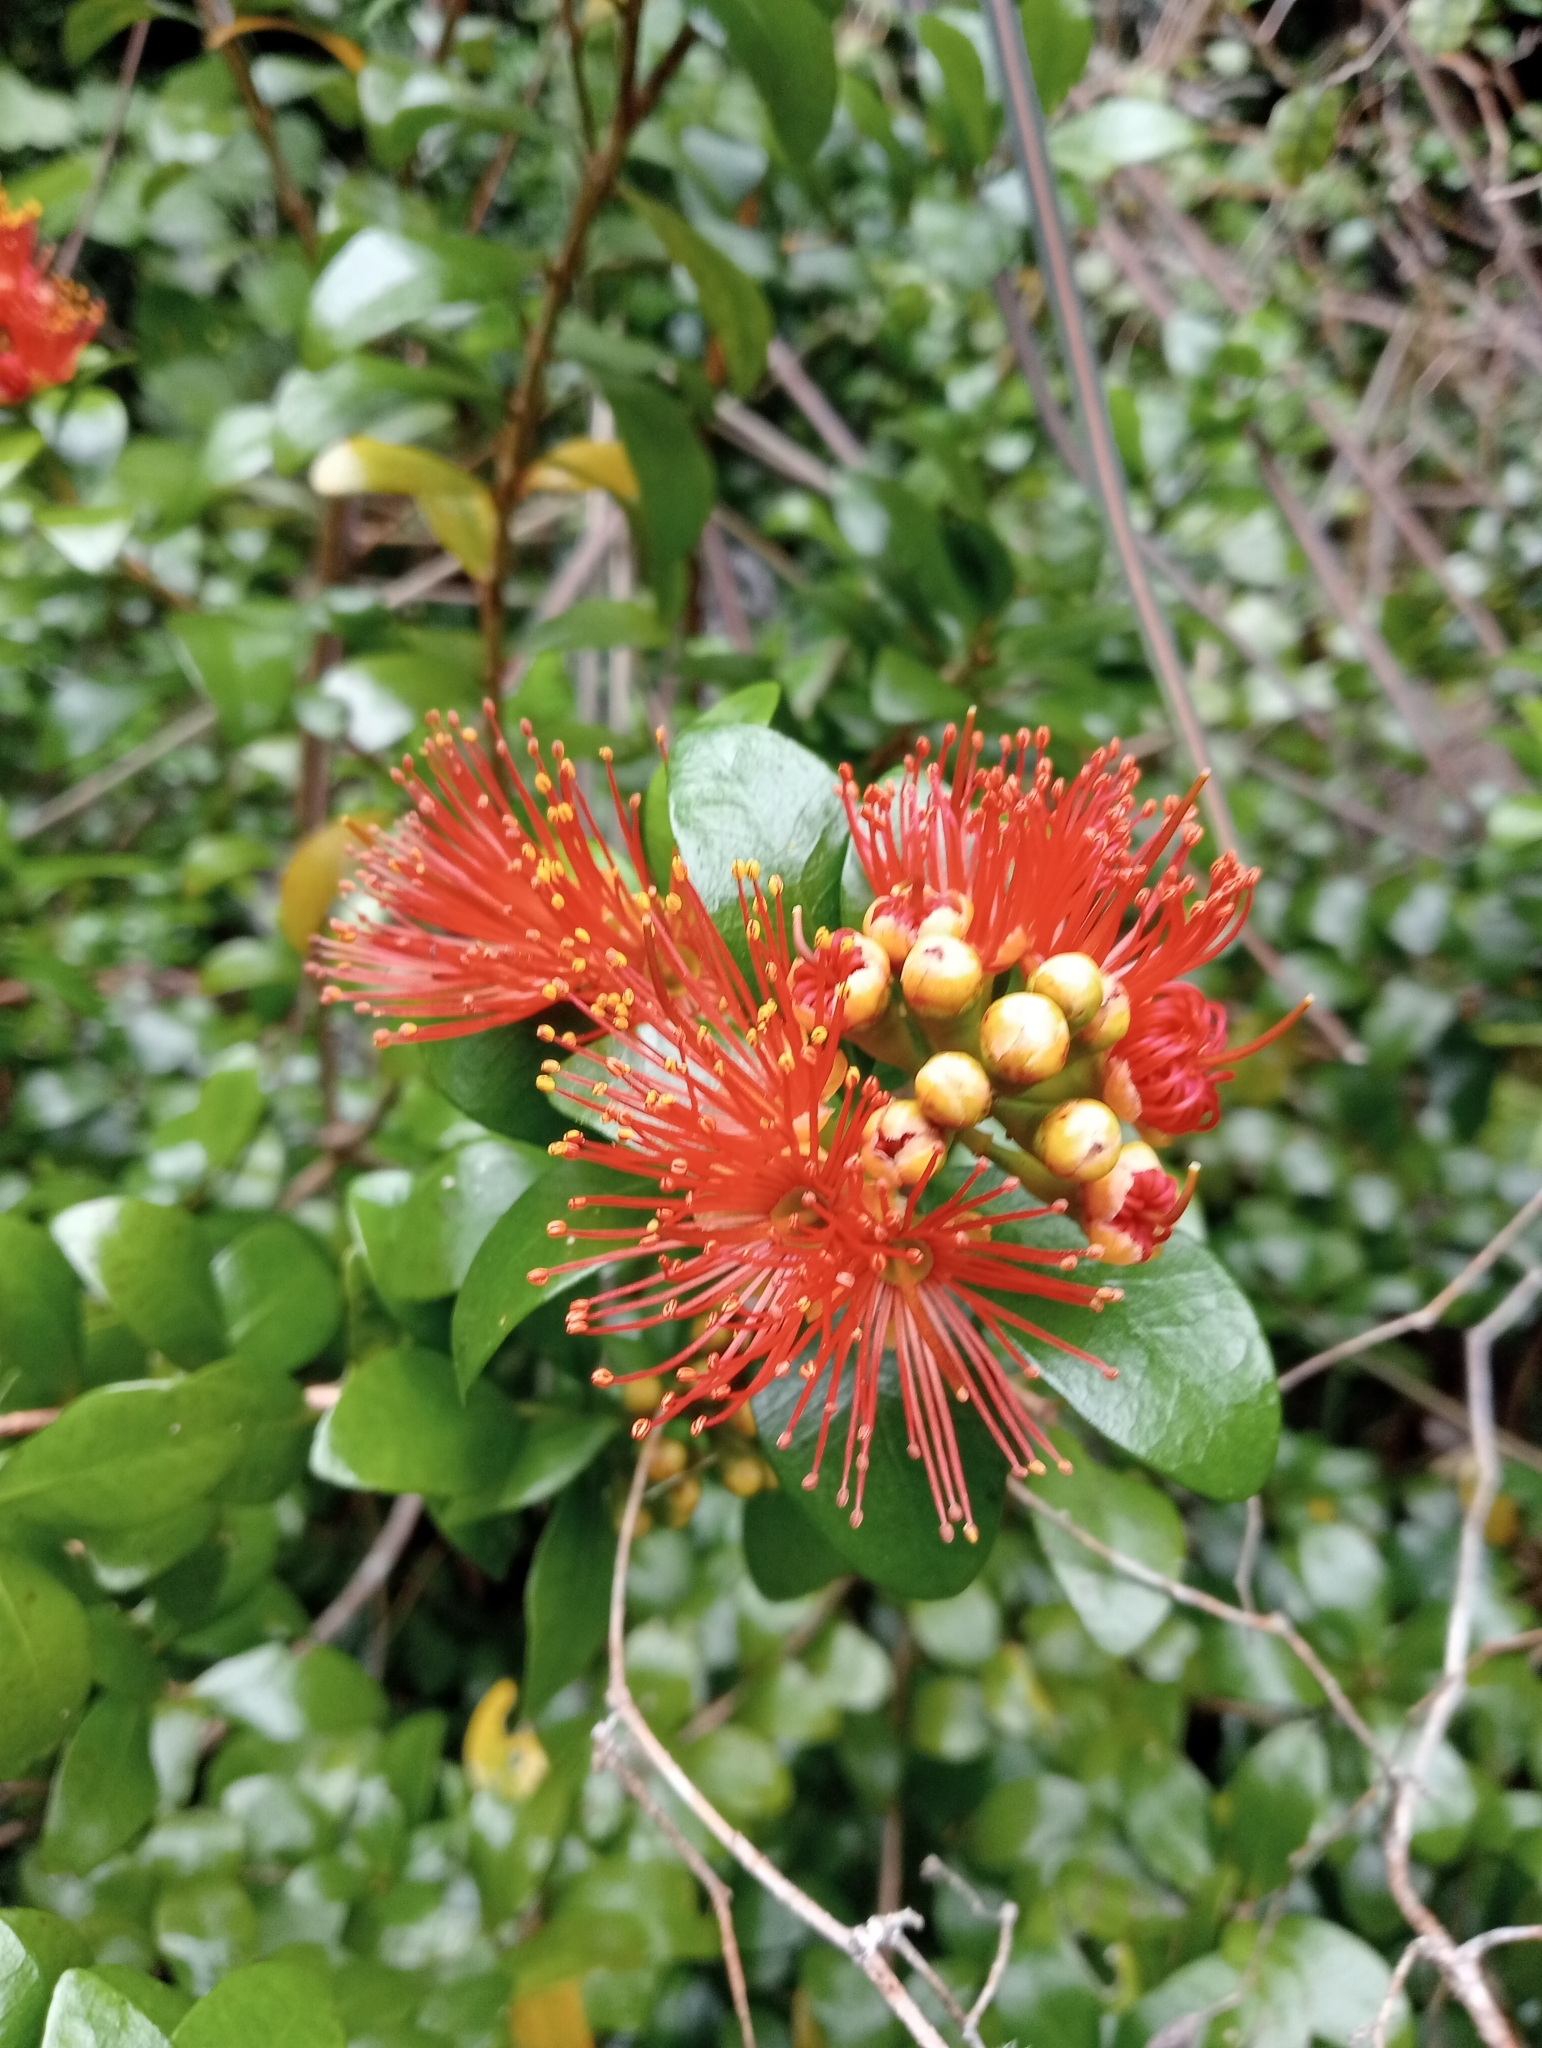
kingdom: Plantae
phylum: Tracheophyta
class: Magnoliopsida
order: Myrtales
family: Myrtaceae
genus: Metrosideros
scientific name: Metrosideros fulgens
